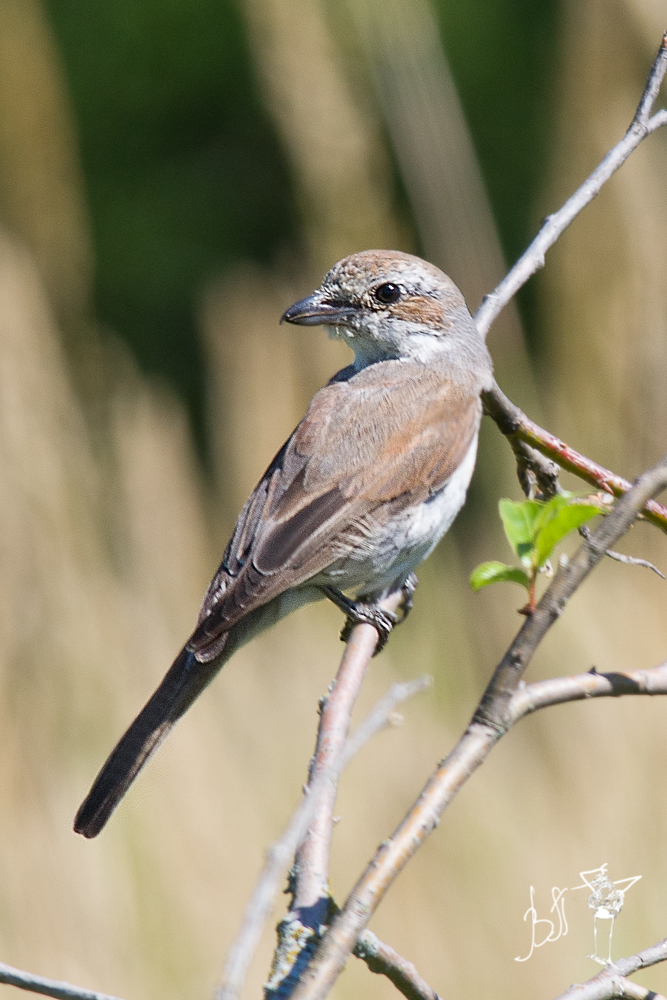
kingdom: Animalia
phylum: Chordata
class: Aves
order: Passeriformes
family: Laniidae
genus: Lanius
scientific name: Lanius collurio
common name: Red-backed shrike
